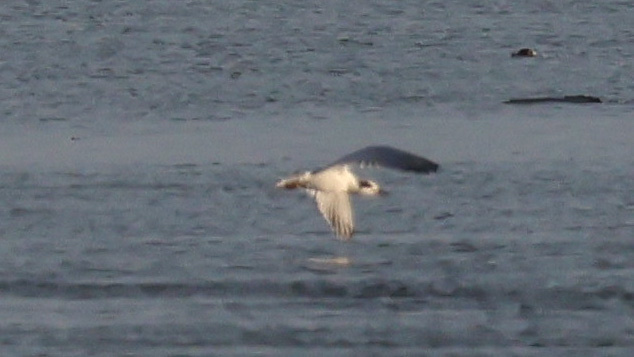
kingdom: Animalia
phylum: Chordata
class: Aves
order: Charadriiformes
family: Laridae
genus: Sterna
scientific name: Sterna forsteri
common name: Forster's tern
